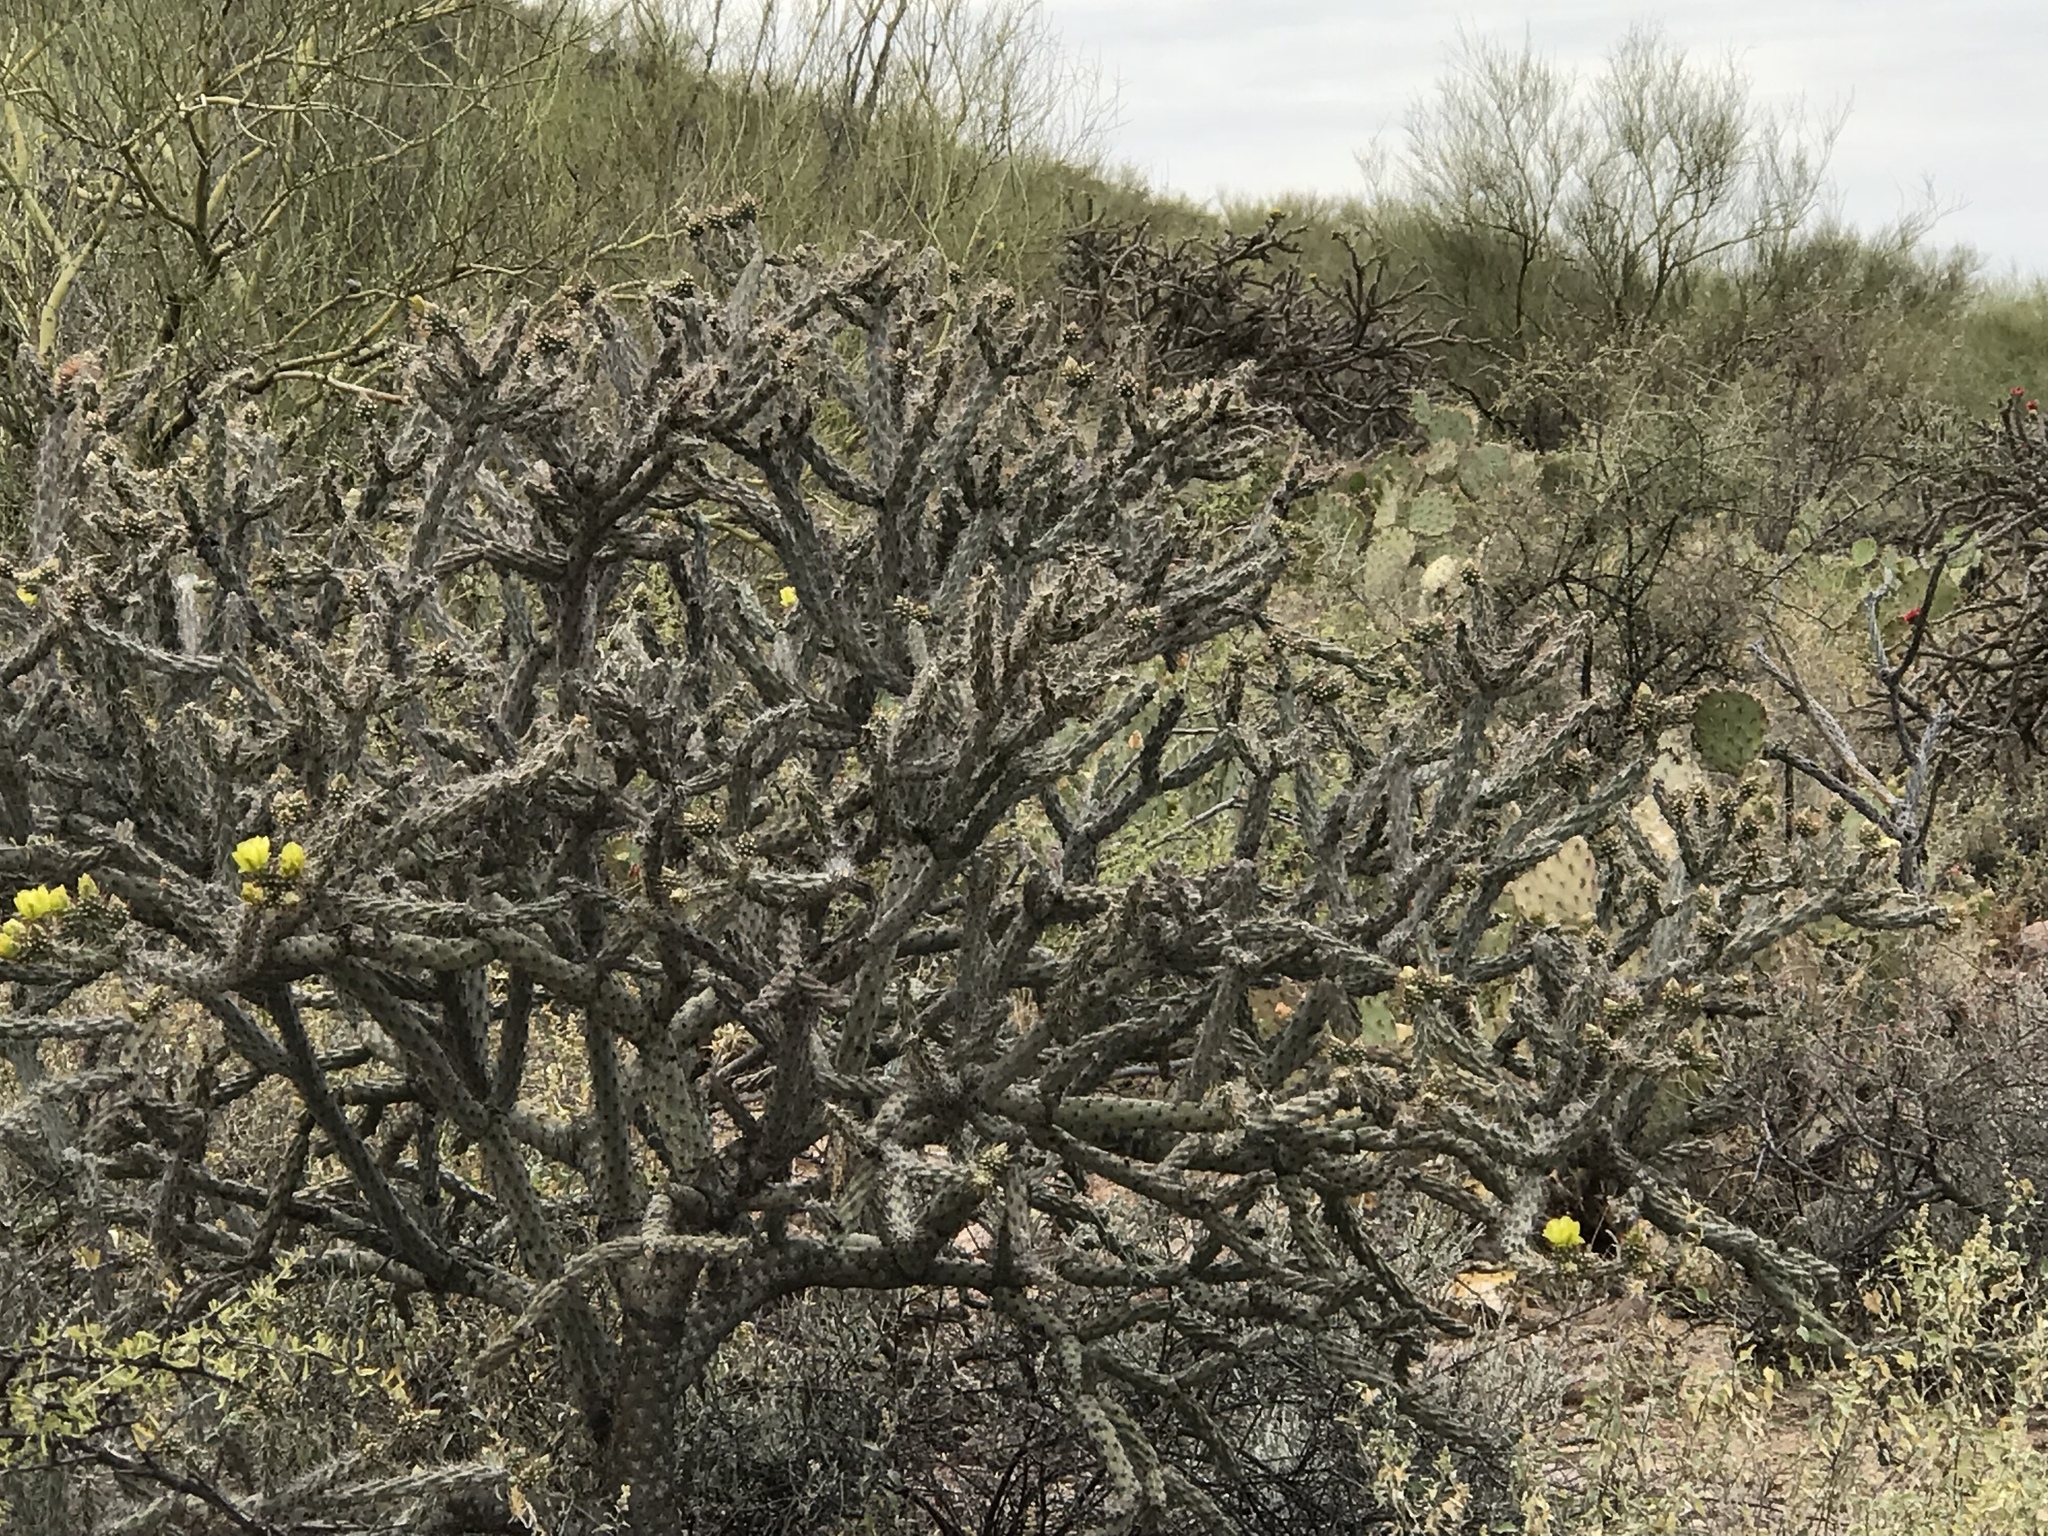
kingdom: Plantae
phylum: Tracheophyta
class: Magnoliopsida
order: Caryophyllales
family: Cactaceae
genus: Cylindropuntia
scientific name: Cylindropuntia thurberi
